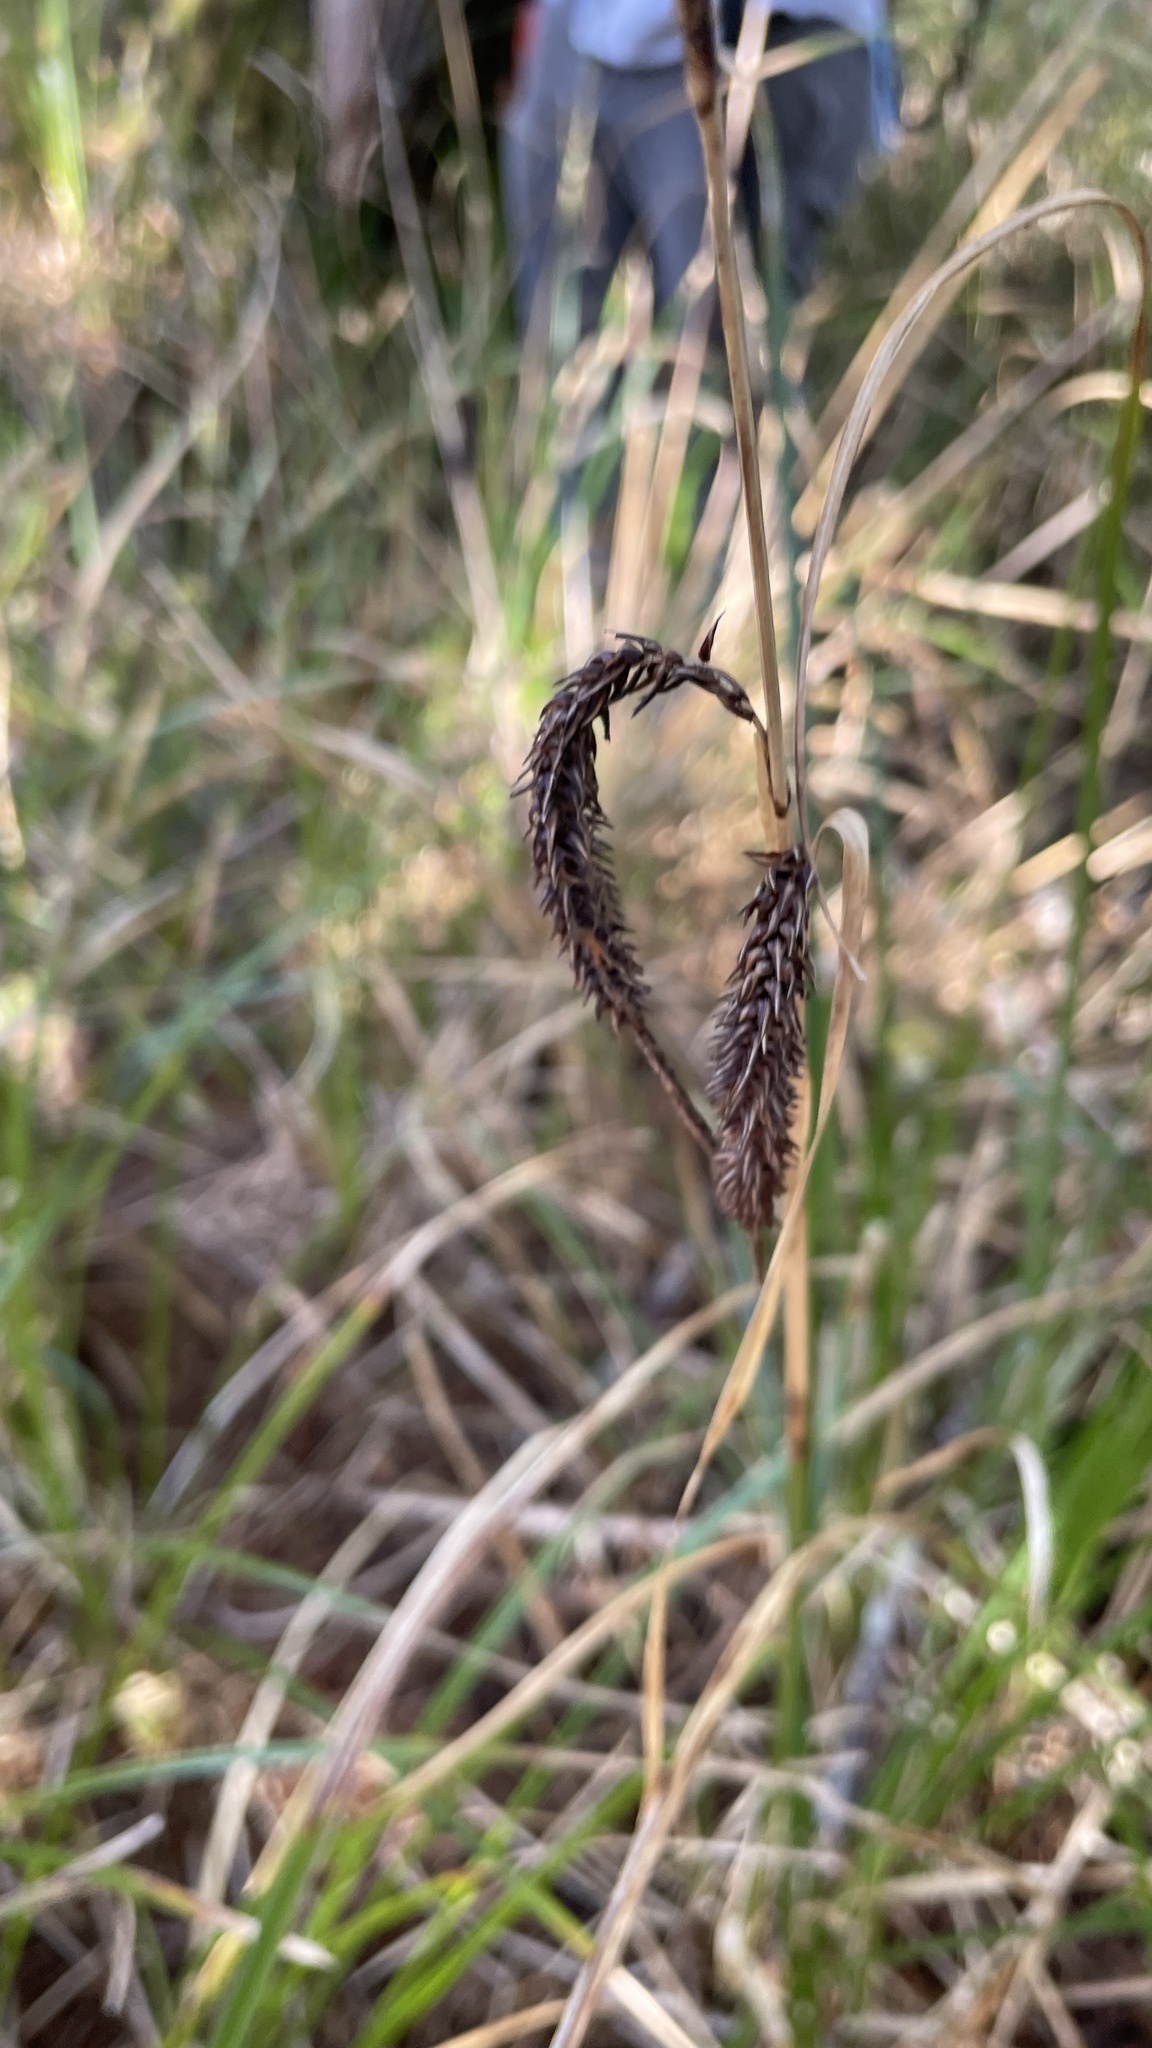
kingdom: Plantae
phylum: Tracheophyta
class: Liliopsida
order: Poales
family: Cyperaceae
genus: Carex
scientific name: Carex obnupta
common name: Slough sedge
